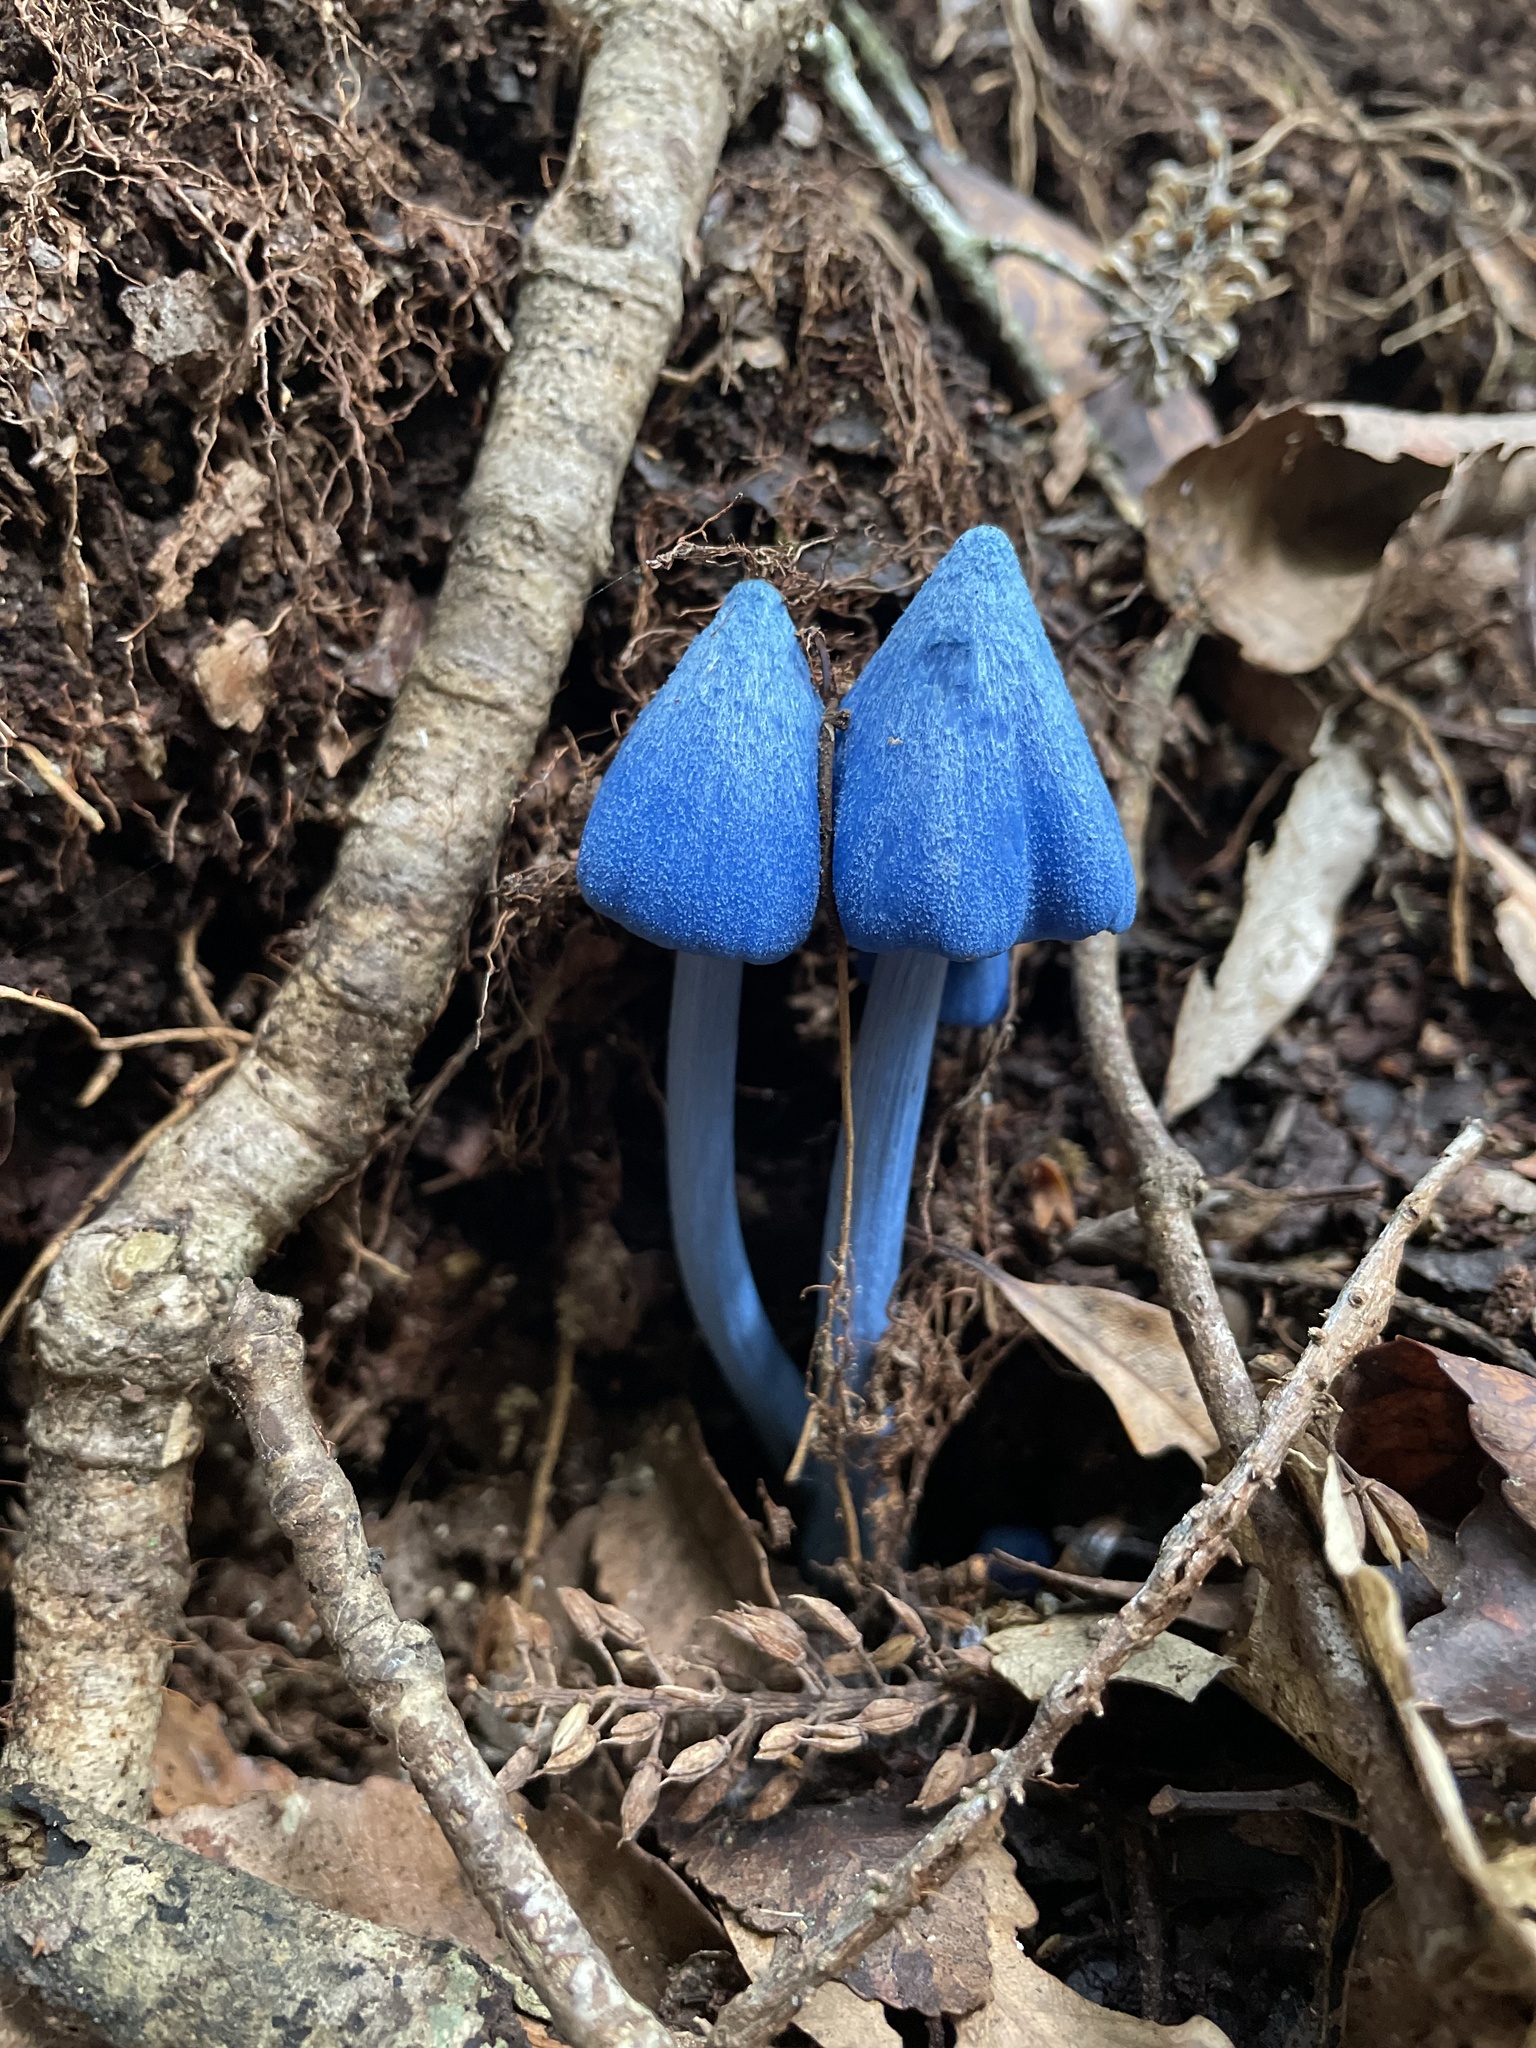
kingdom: Fungi
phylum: Basidiomycota
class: Agaricomycetes
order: Agaricales
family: Entolomataceae
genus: Entoloma
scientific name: Entoloma hochstetteri
